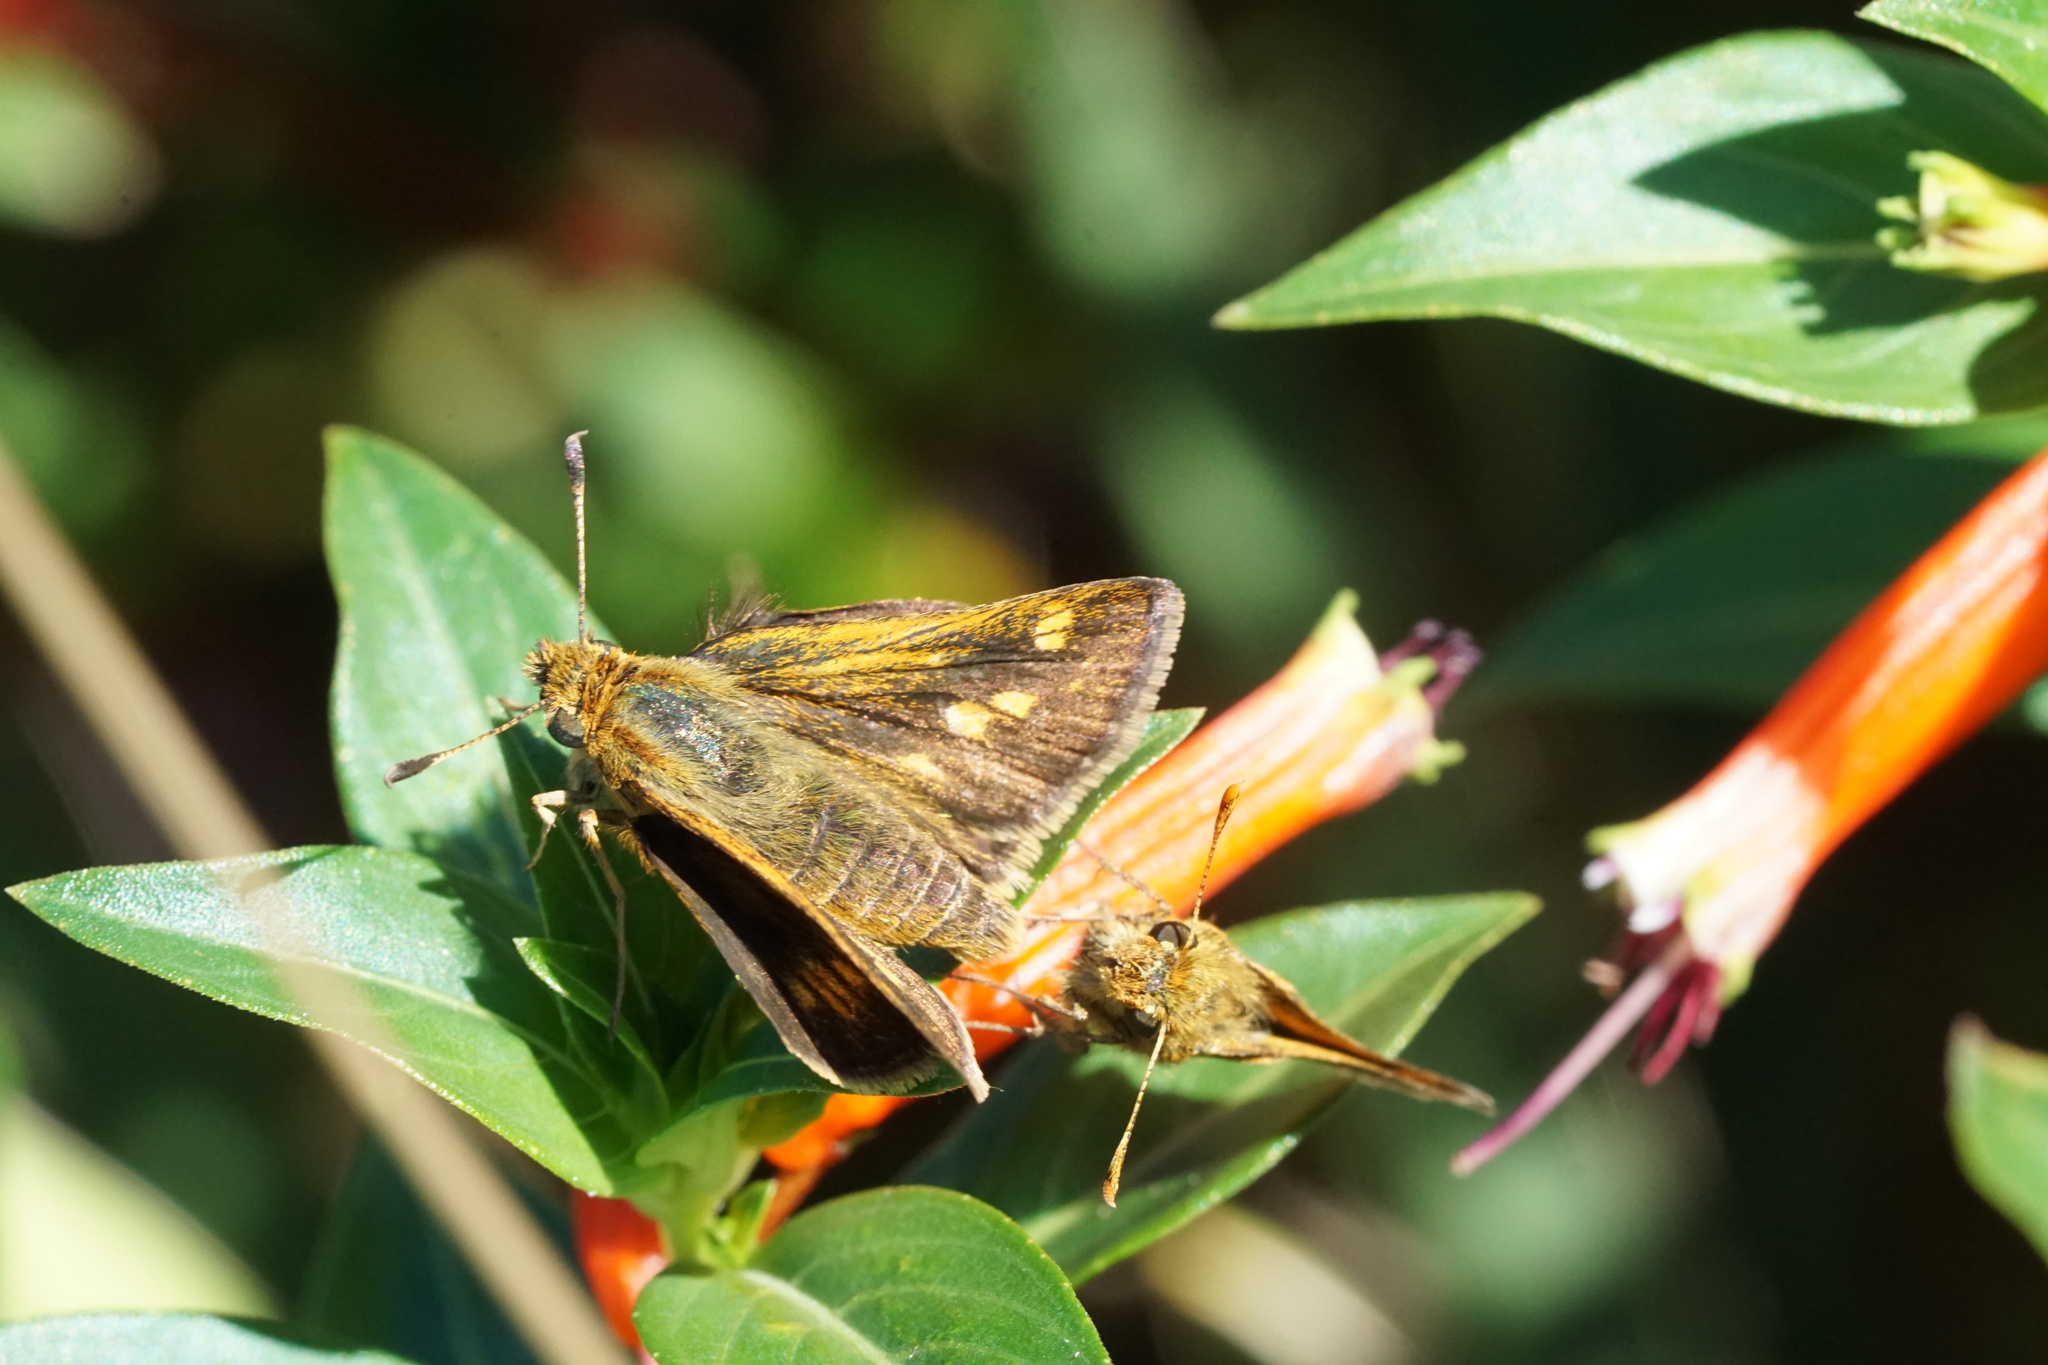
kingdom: Animalia
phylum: Arthropoda
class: Insecta
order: Lepidoptera
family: Hesperiidae
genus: Polites
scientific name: Polites coras
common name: Peck's skipper
